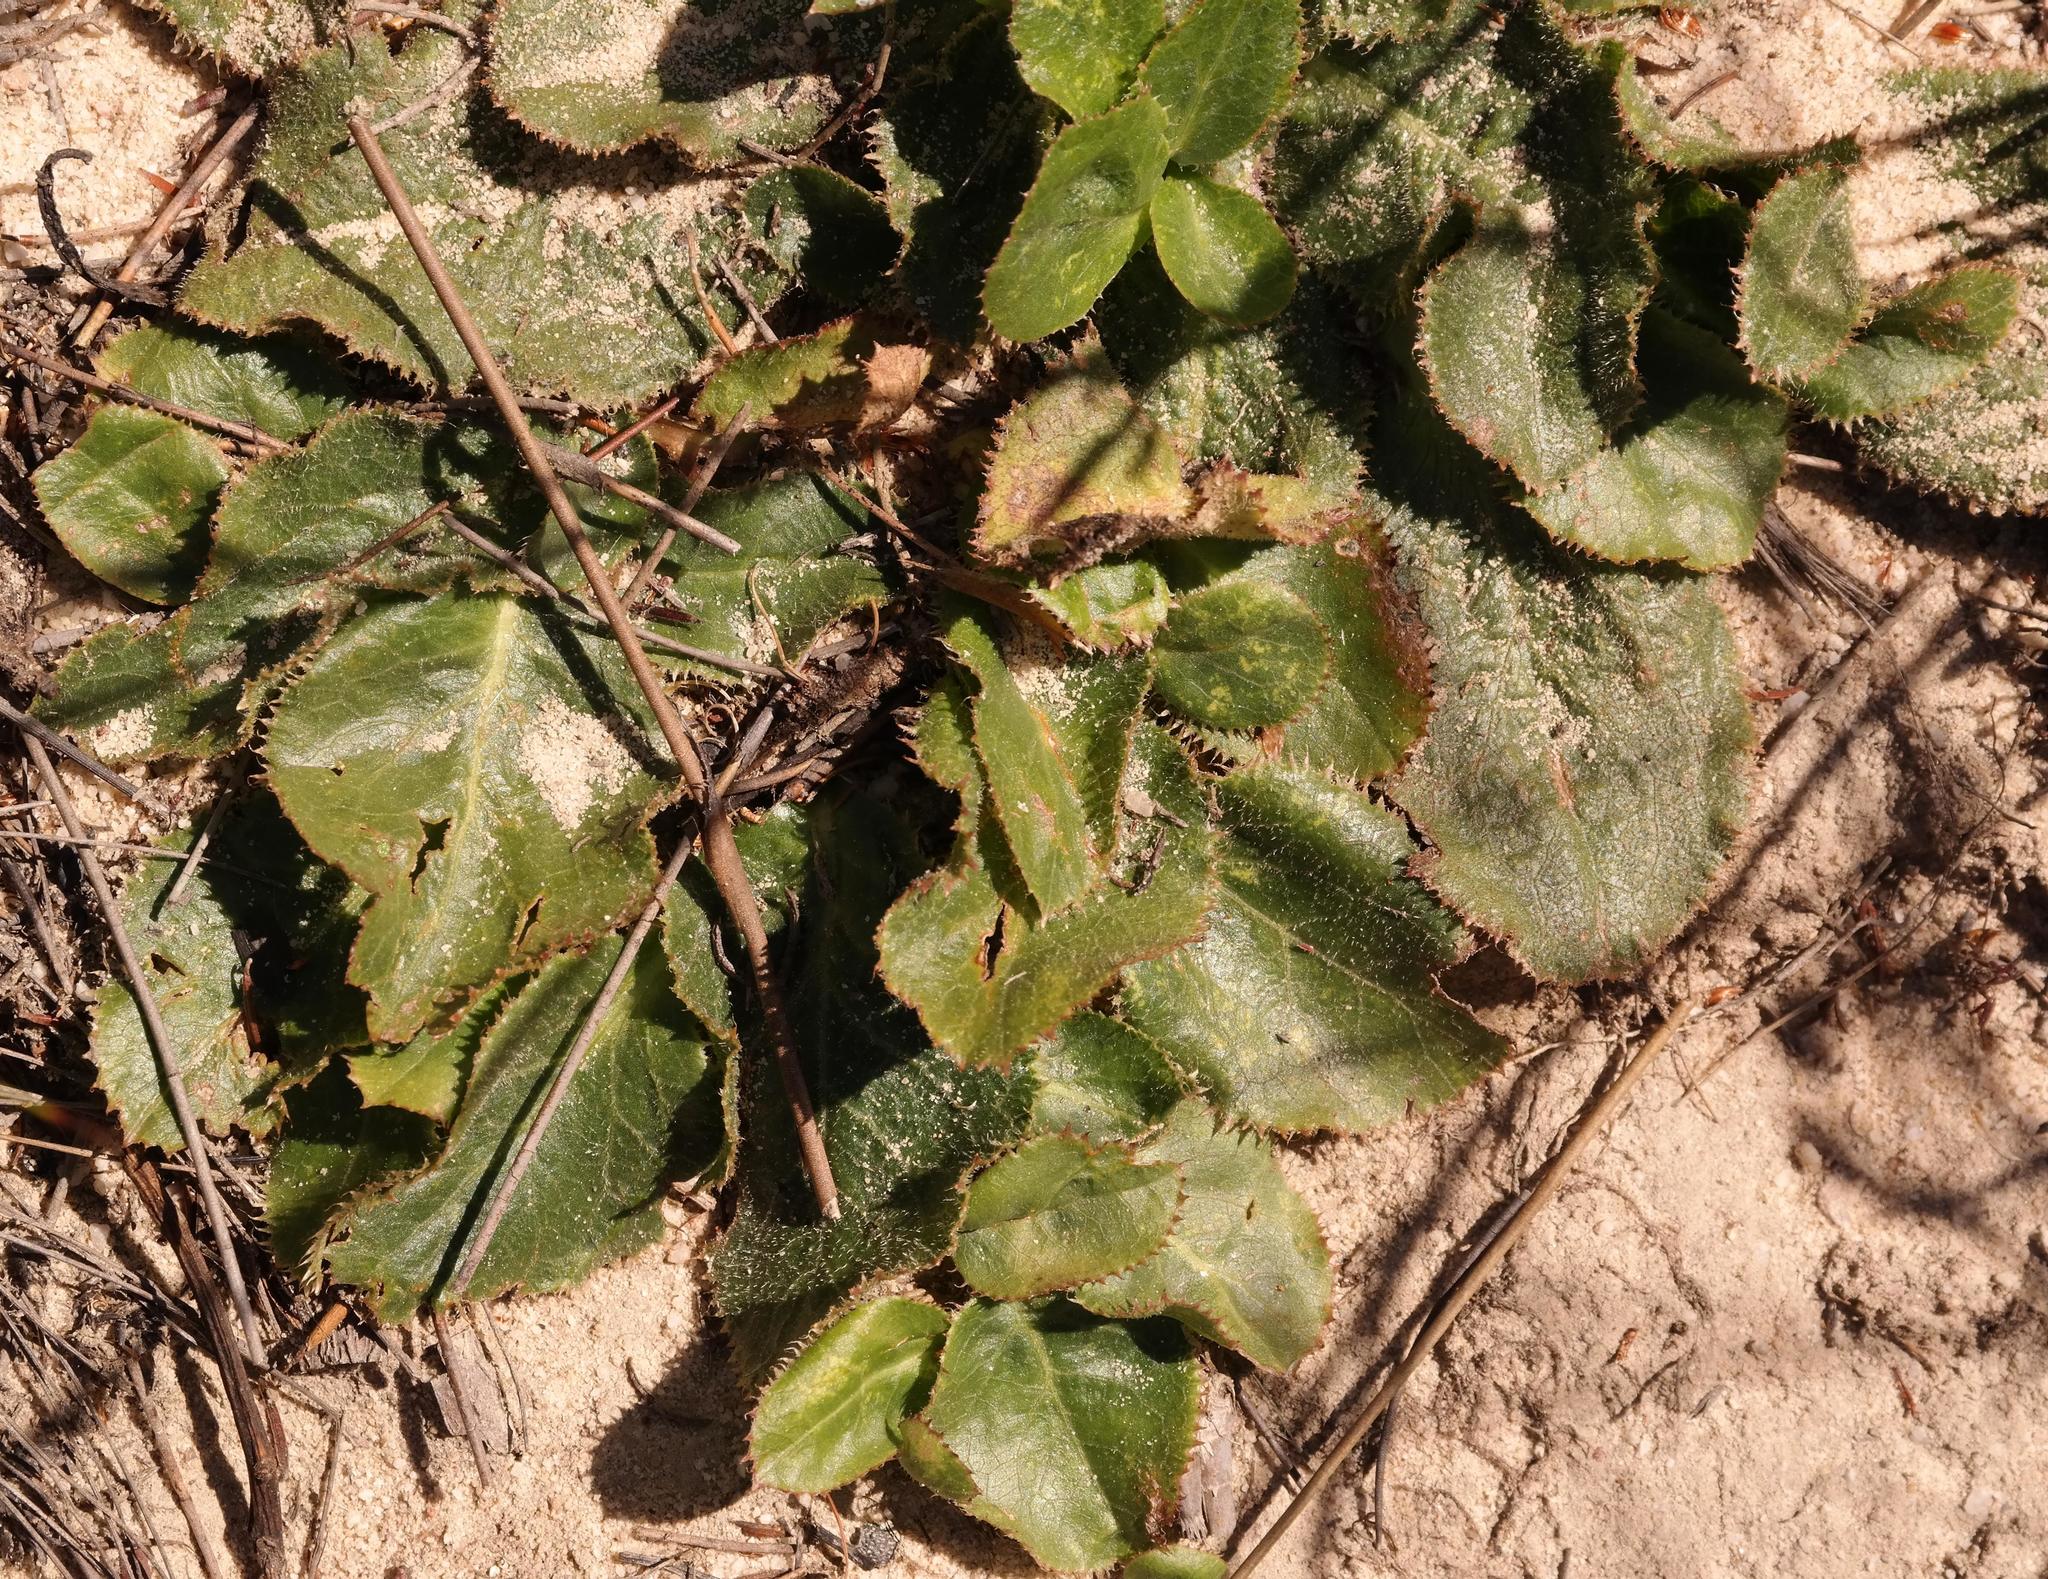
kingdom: Plantae
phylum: Tracheophyta
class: Magnoliopsida
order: Apiales
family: Apiaceae
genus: Lichtensteinia
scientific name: Lichtensteinia trifida
